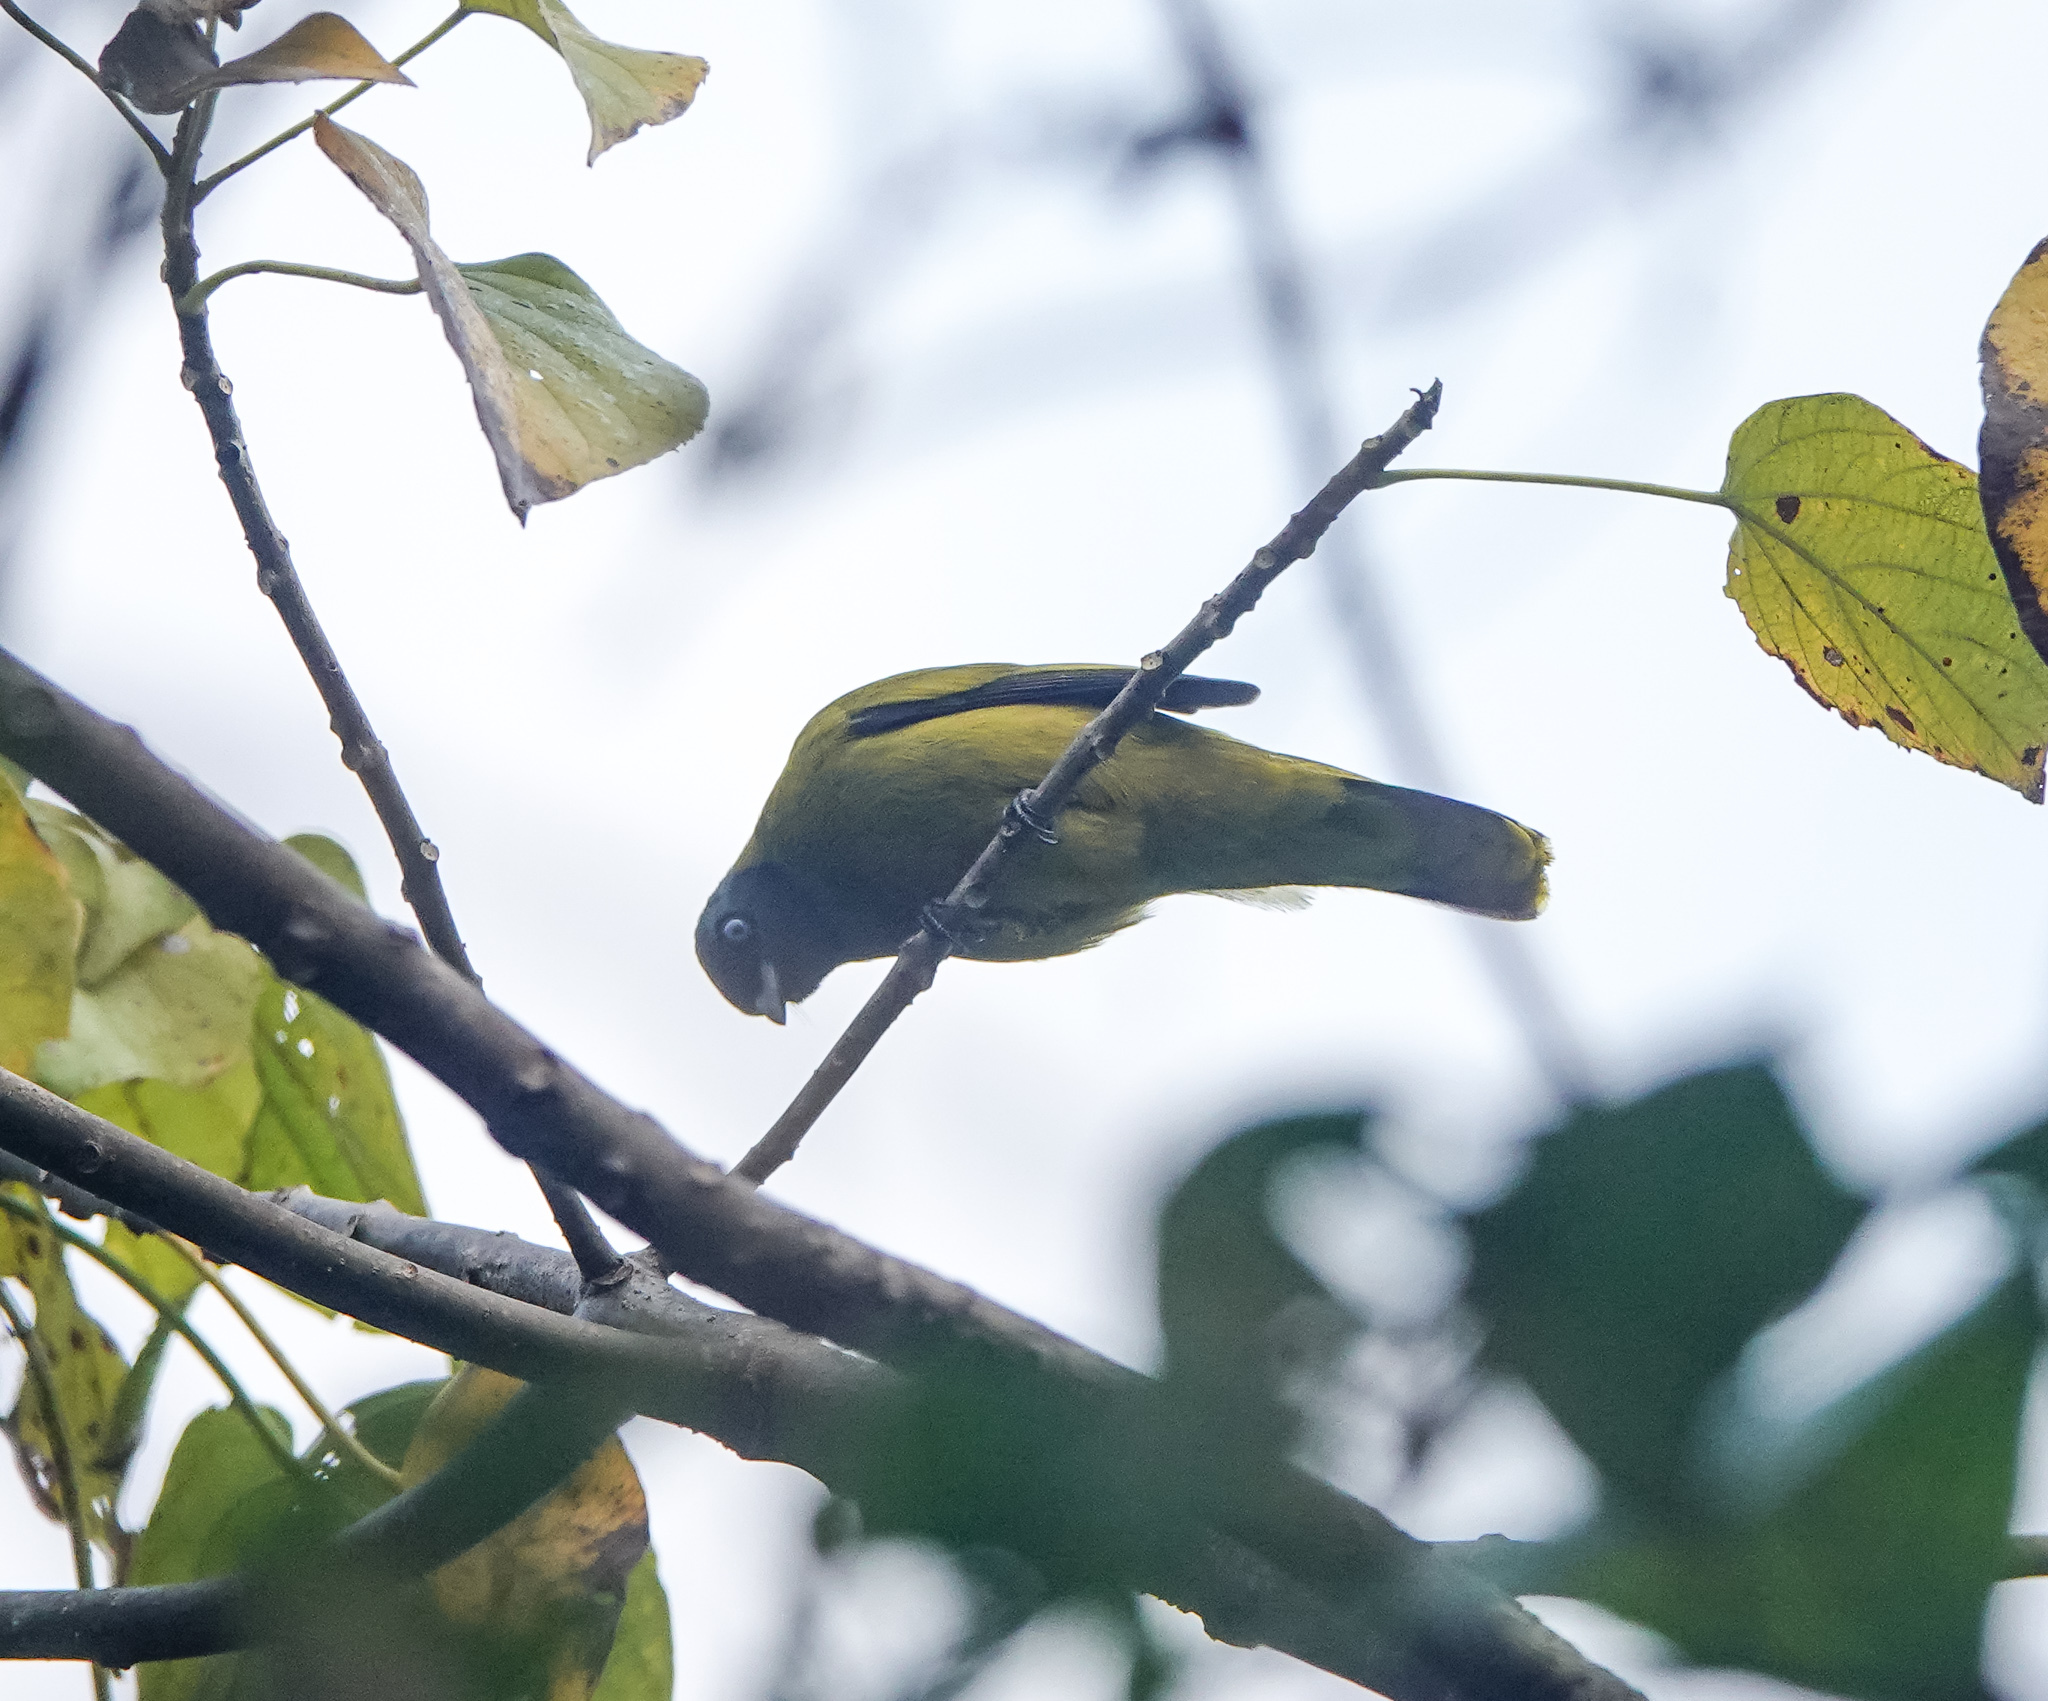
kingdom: Animalia
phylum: Chordata
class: Aves
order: Passeriformes
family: Pycnonotidae
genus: Microtarsus
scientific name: Microtarsus
